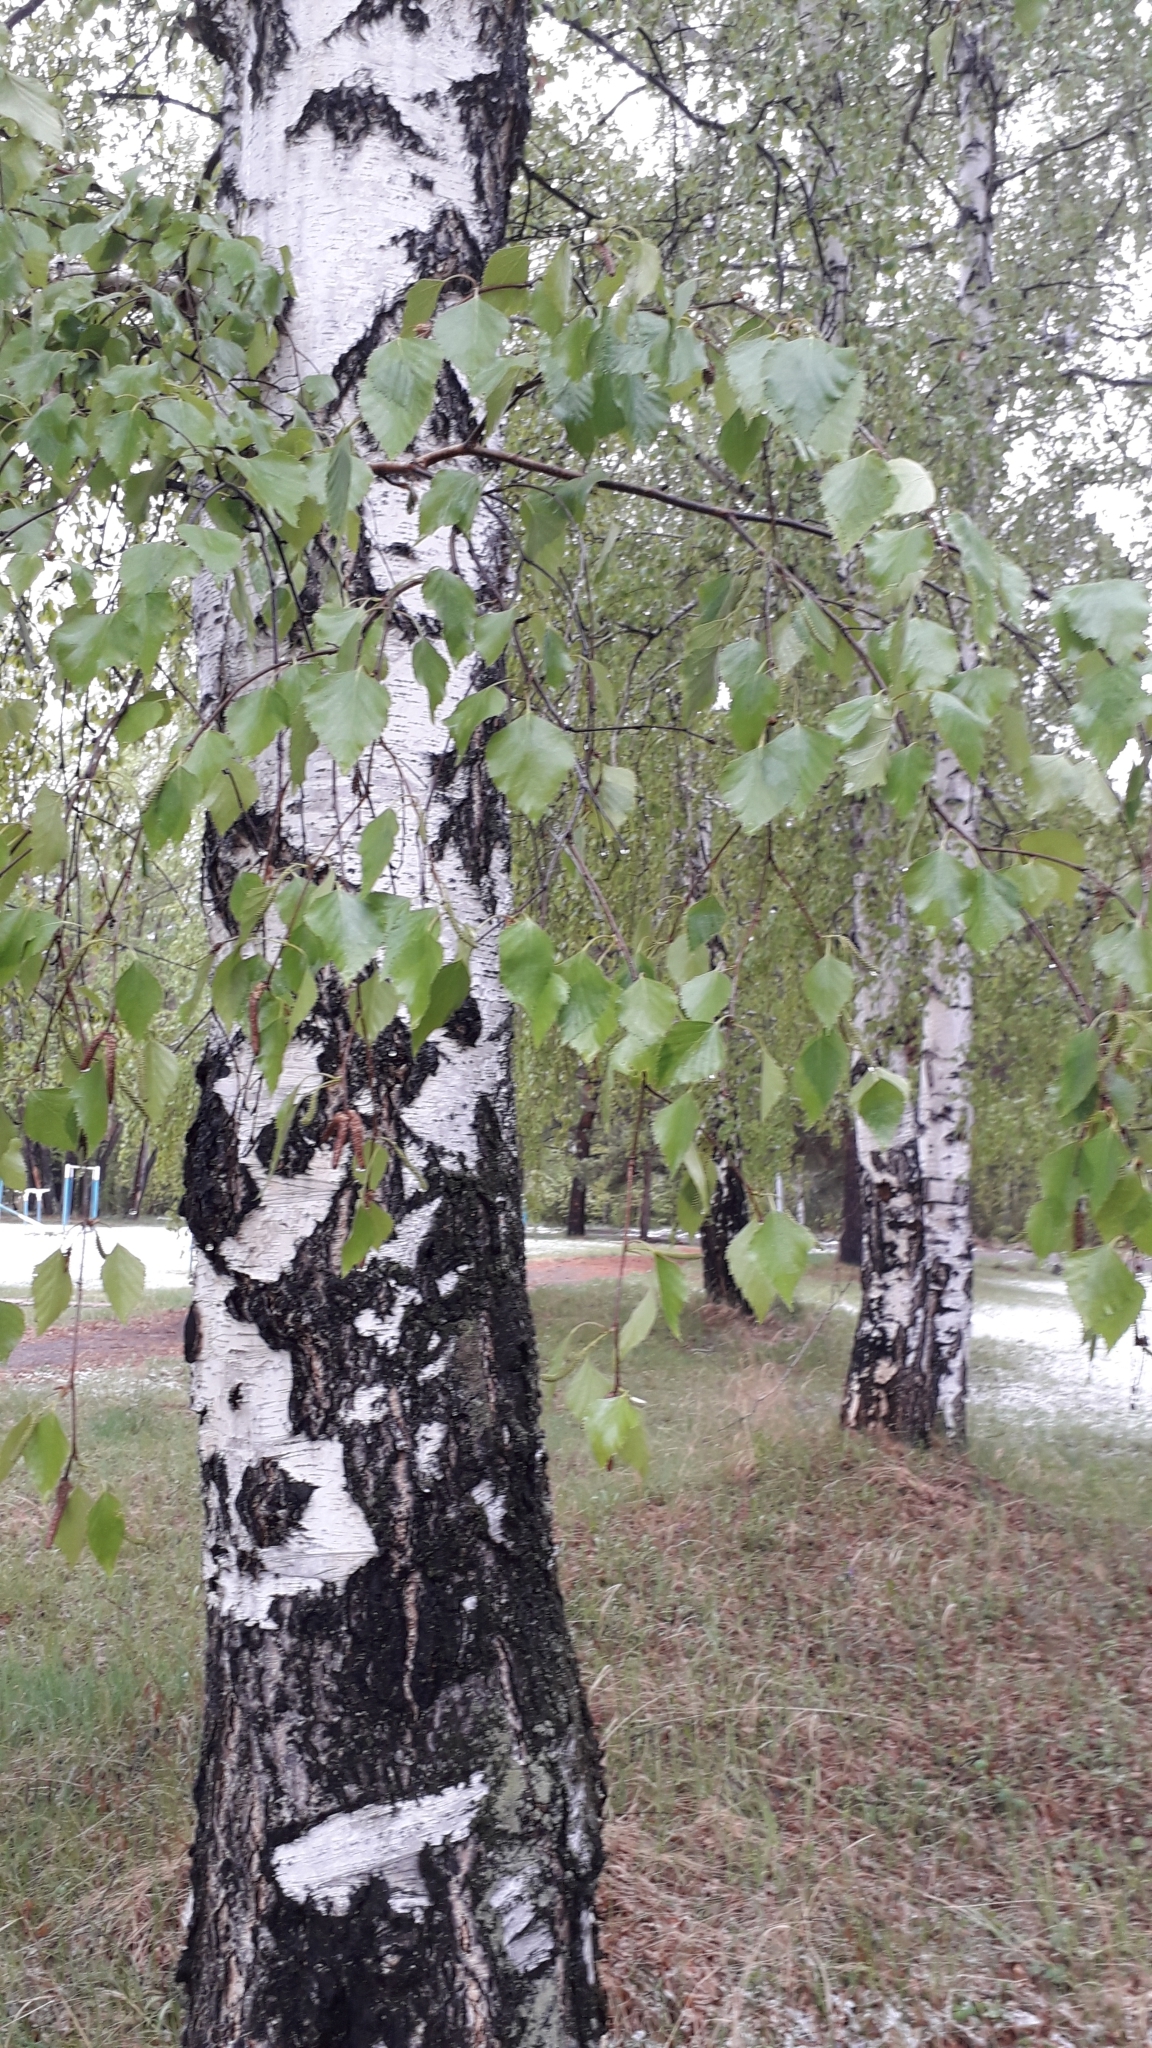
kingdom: Plantae
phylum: Tracheophyta
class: Magnoliopsida
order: Fagales
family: Betulaceae
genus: Betula
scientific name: Betula pendula
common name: Silver birch
